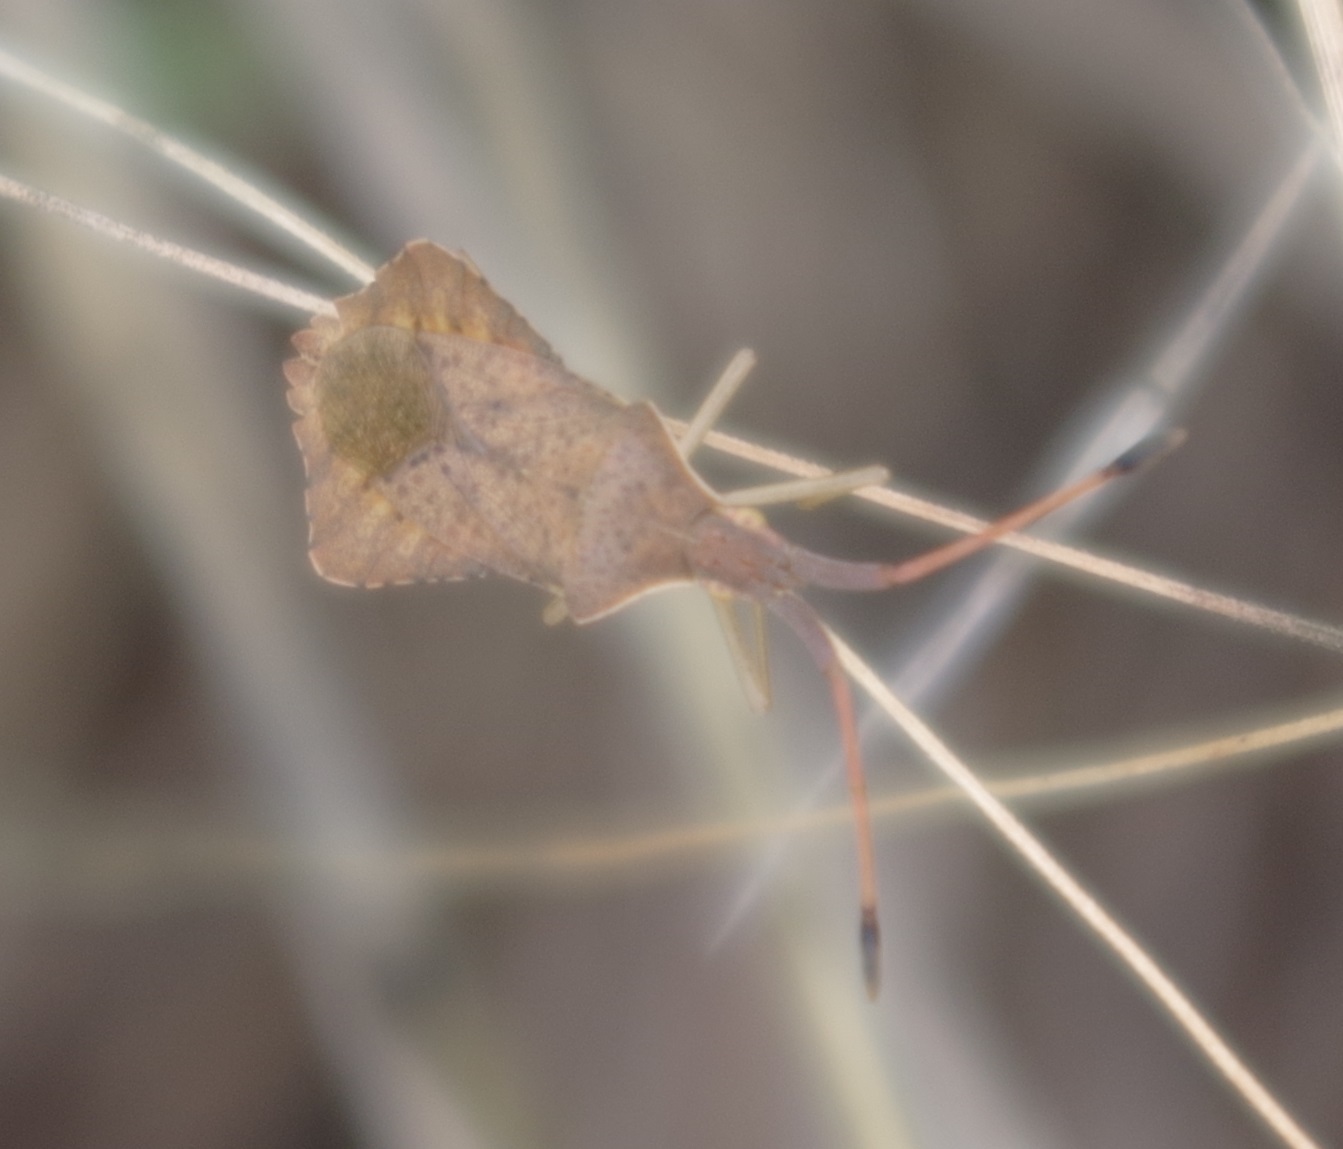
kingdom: Animalia
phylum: Arthropoda
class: Insecta
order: Hemiptera
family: Coreidae
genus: Syromastus
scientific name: Syromastus rhombeus
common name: Rhombic leatherbug
